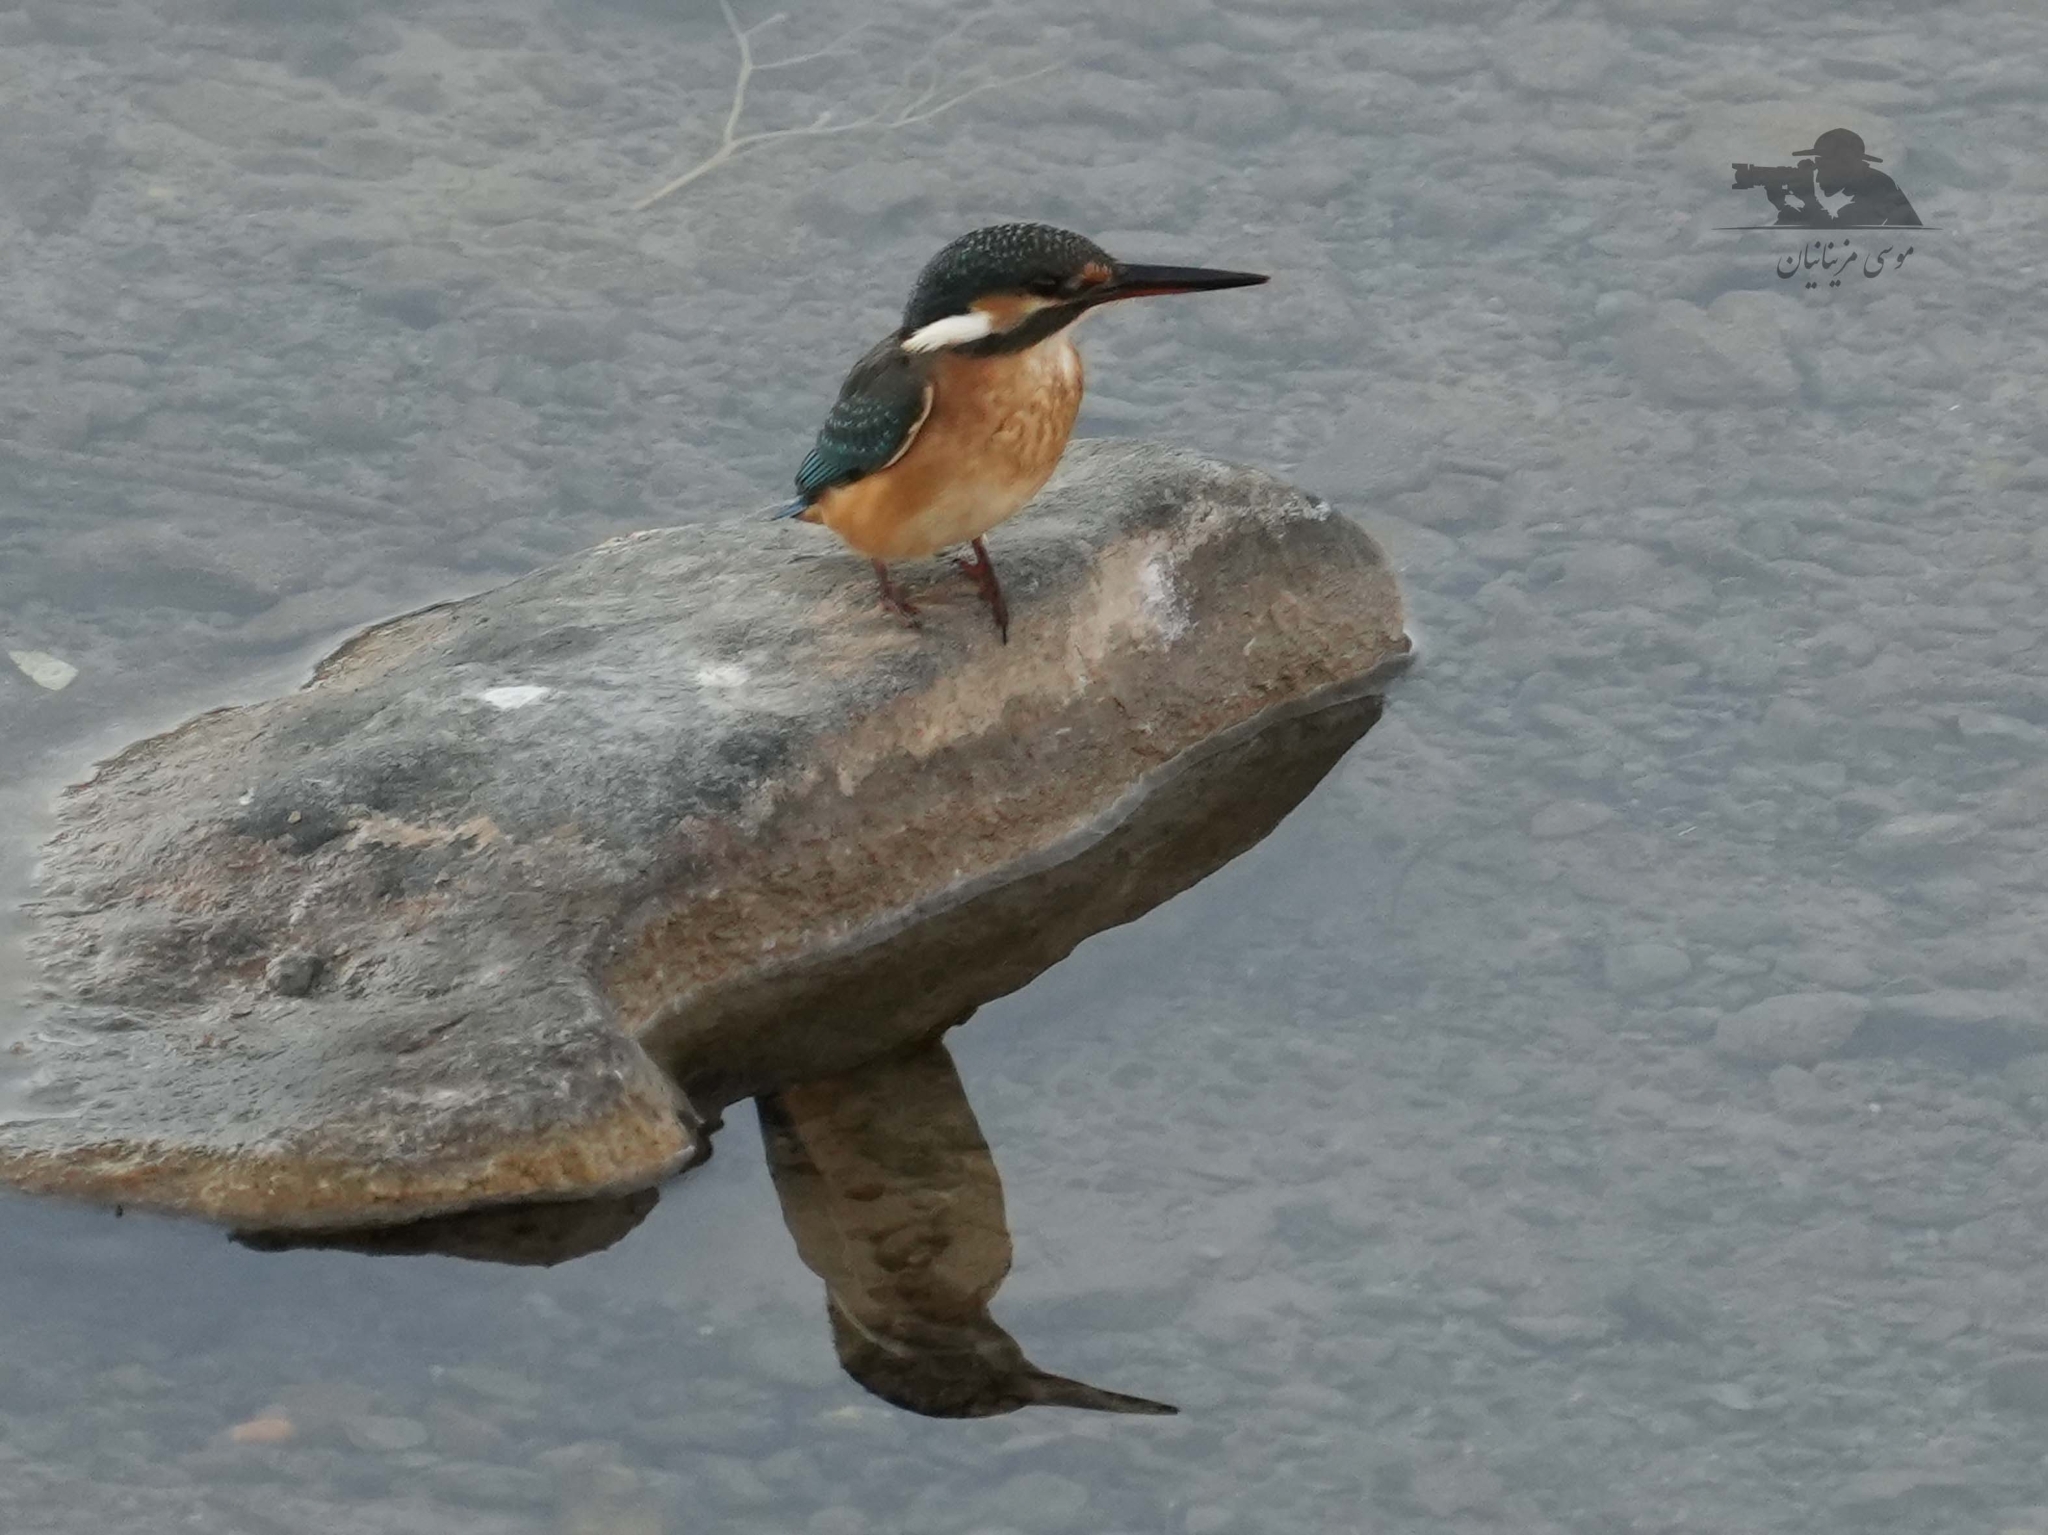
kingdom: Animalia
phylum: Chordata
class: Aves
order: Coraciiformes
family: Alcedinidae
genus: Alcedo
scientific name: Alcedo atthis
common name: Common kingfisher
